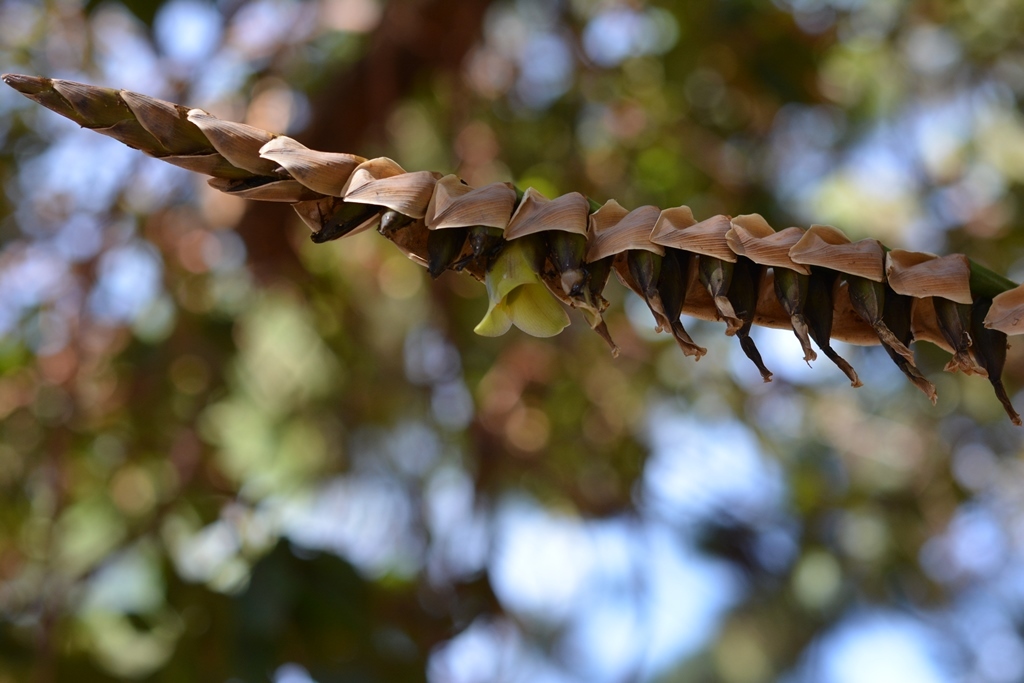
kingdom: Plantae
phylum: Tracheophyta
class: Liliopsida
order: Poales
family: Bromeliaceae
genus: Werauhia
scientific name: Werauhia werckleana
